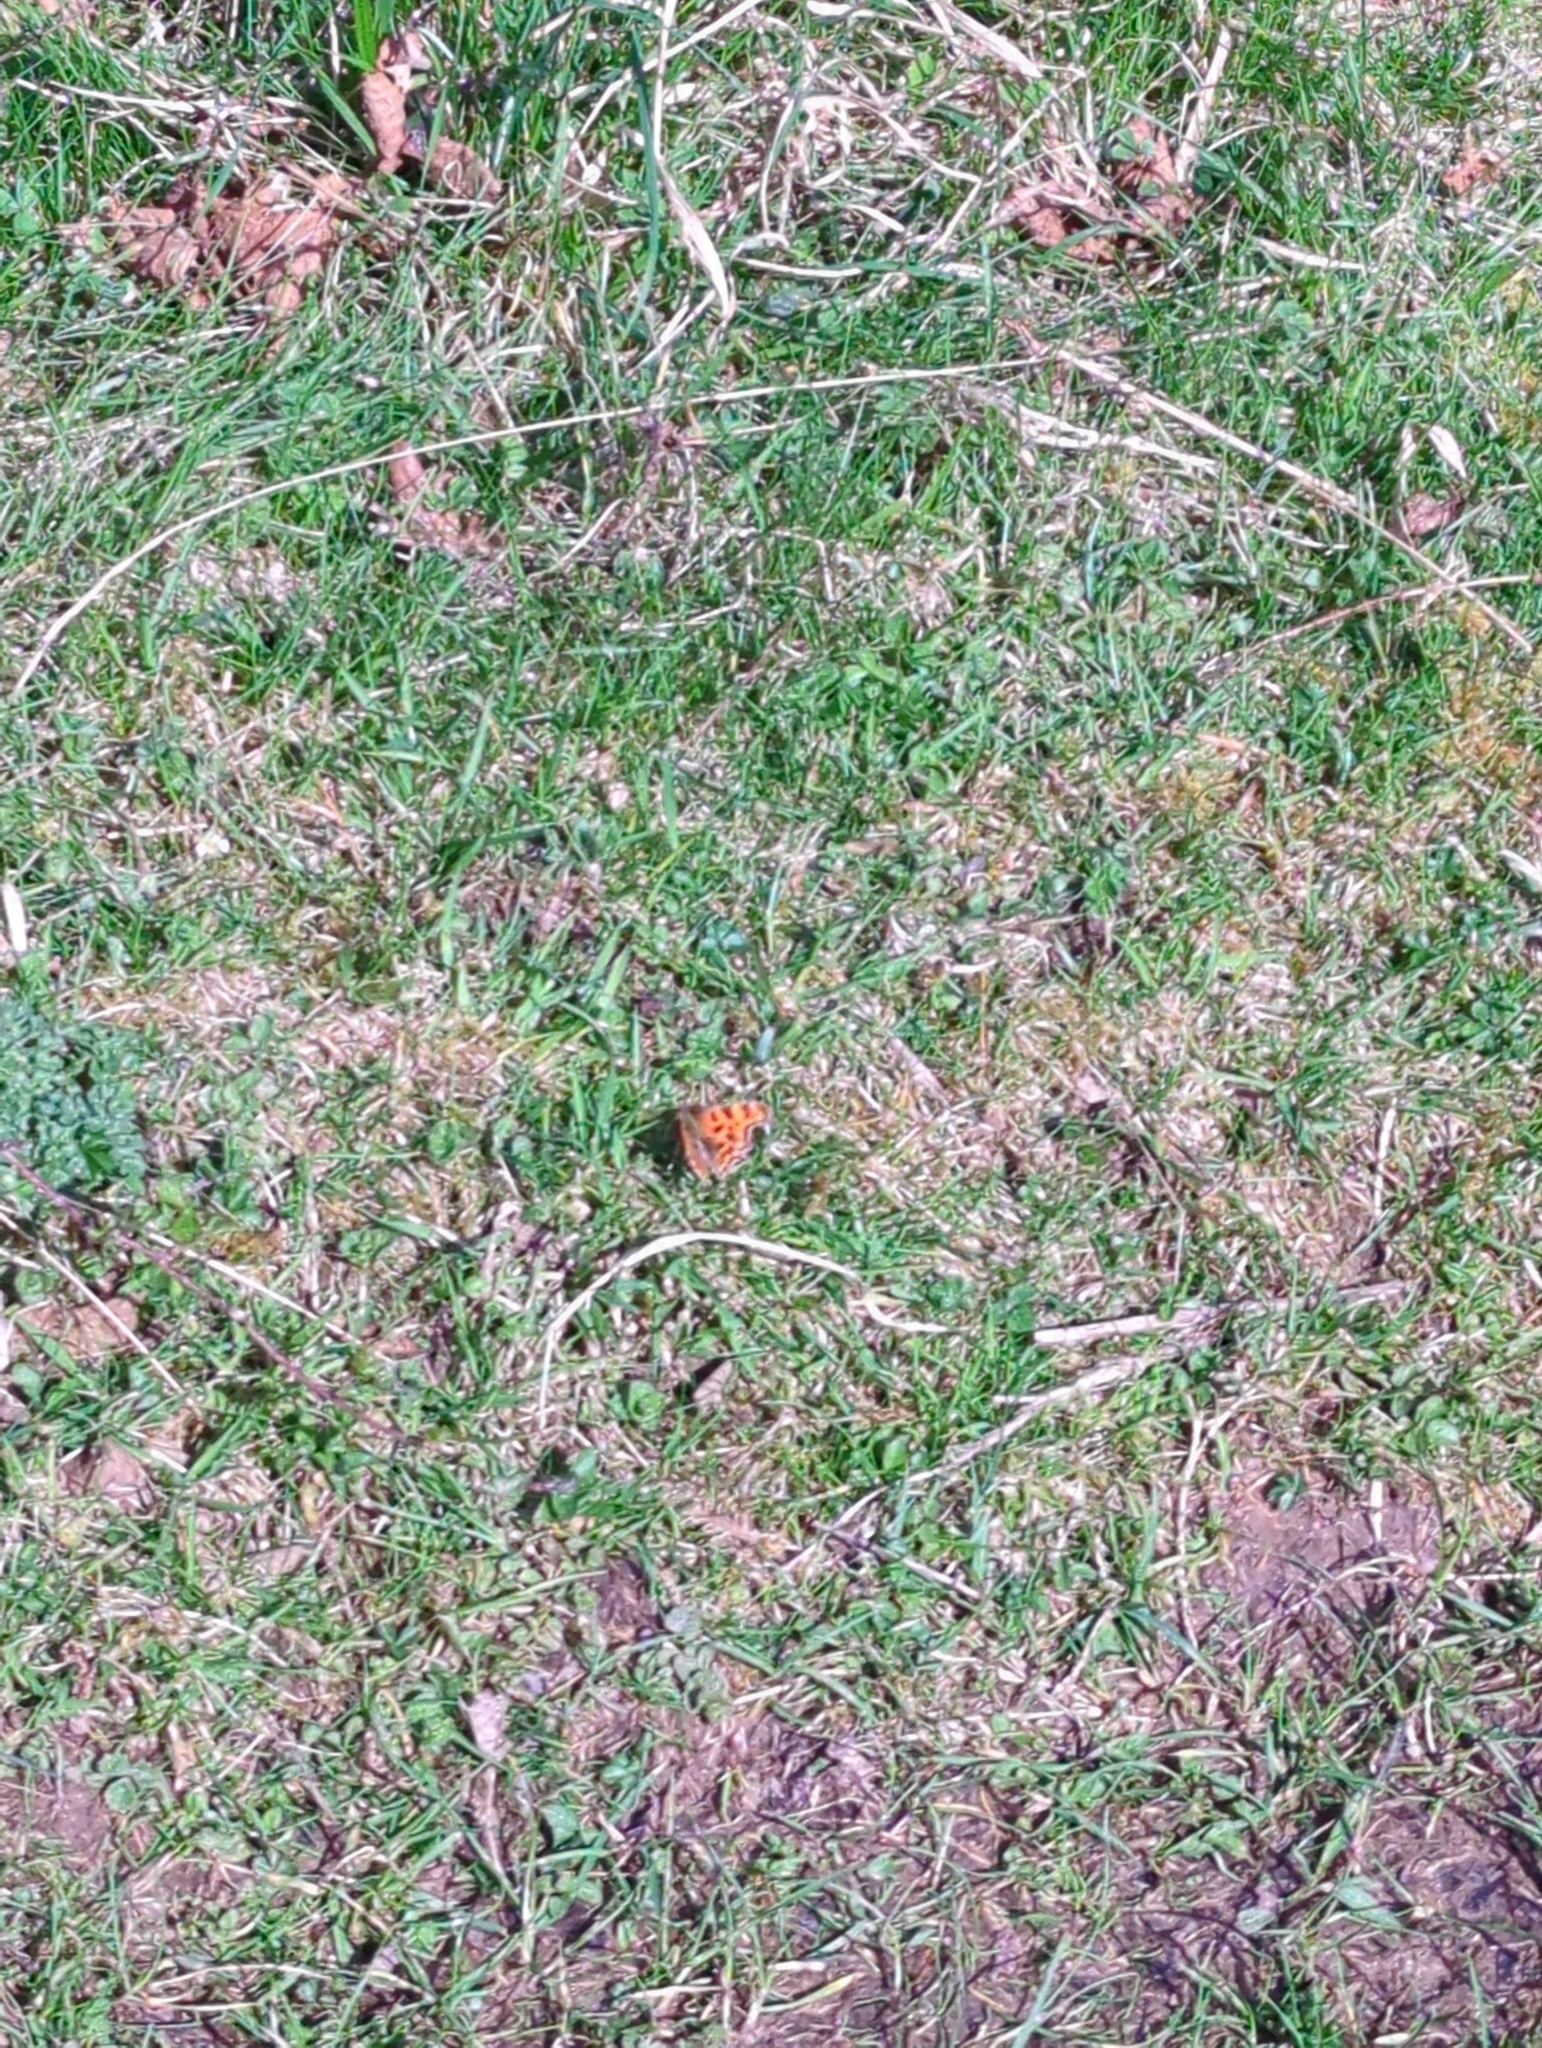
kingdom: Animalia
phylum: Arthropoda
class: Insecta
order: Lepidoptera
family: Nymphalidae
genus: Polygonia
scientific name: Polygonia c-album
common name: Comma
